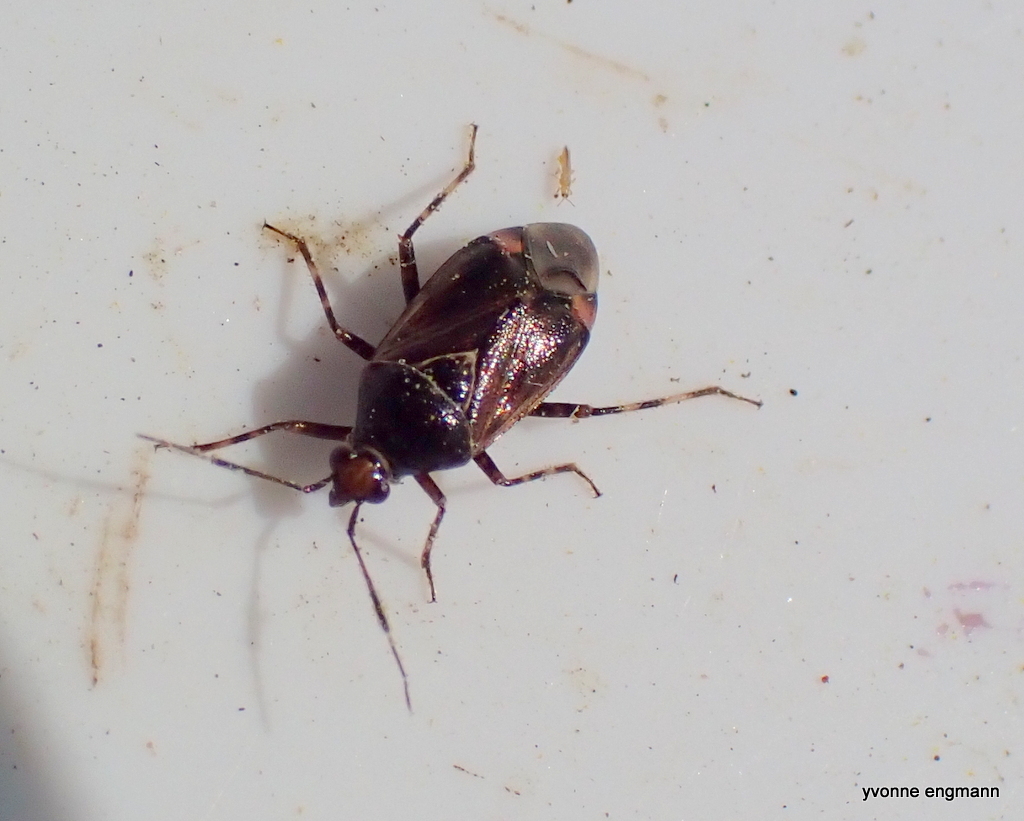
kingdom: Animalia
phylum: Arthropoda
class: Insecta
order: Hemiptera
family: Miridae
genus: Deraeocoris
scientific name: Deraeocoris flavilinea
